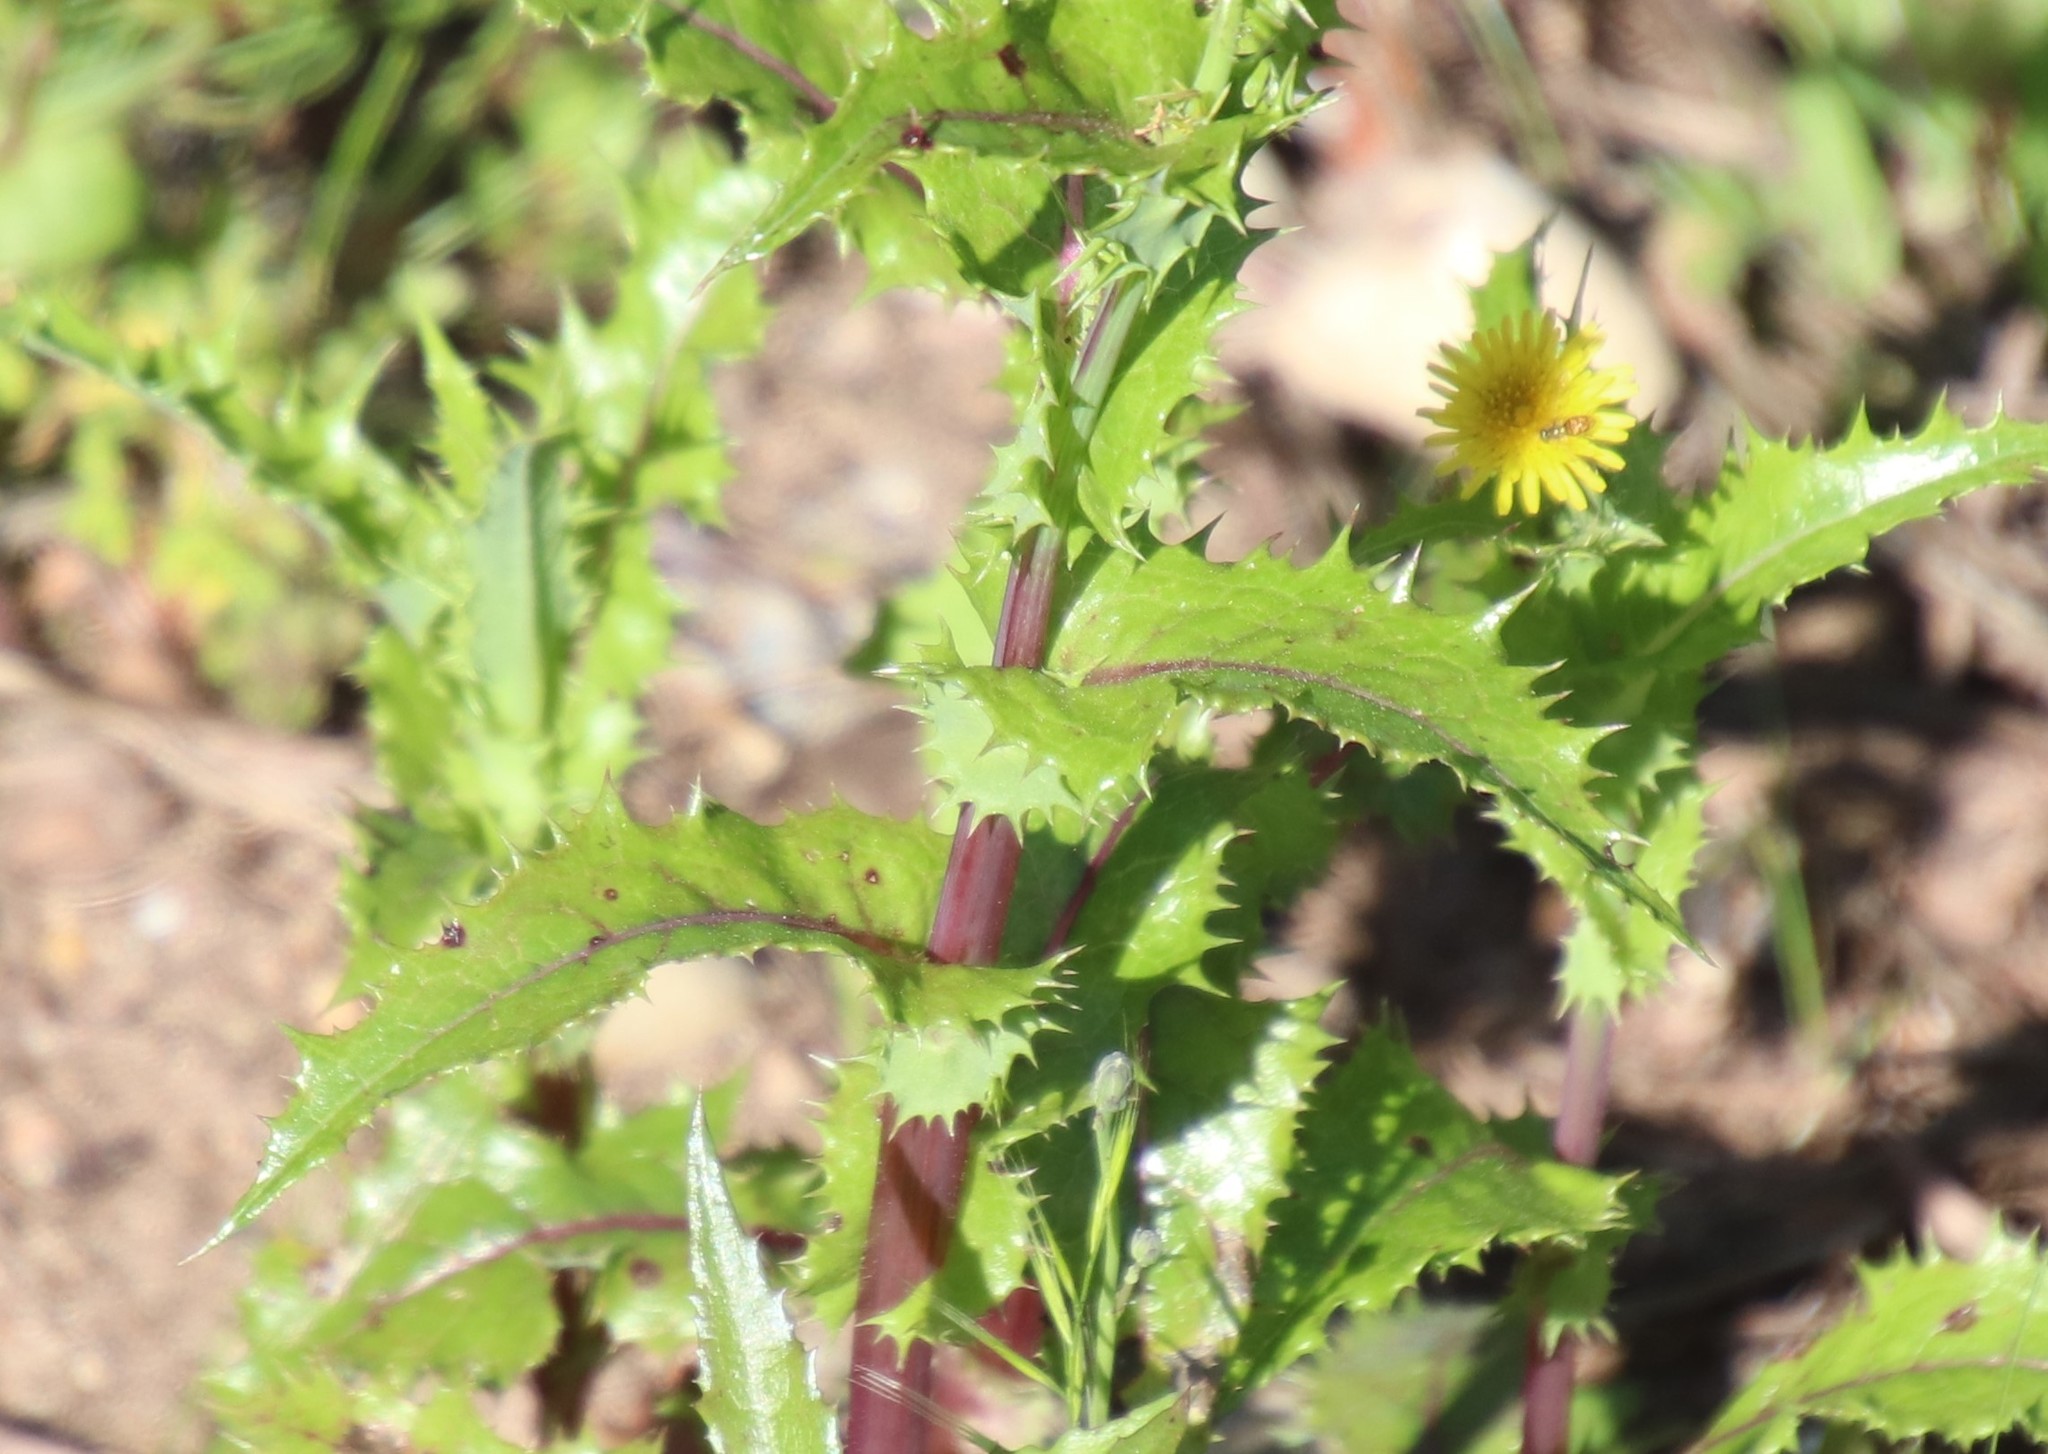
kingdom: Plantae
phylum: Tracheophyta
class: Magnoliopsida
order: Asterales
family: Asteraceae
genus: Sonchus
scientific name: Sonchus asper
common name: Prickly sow-thistle
